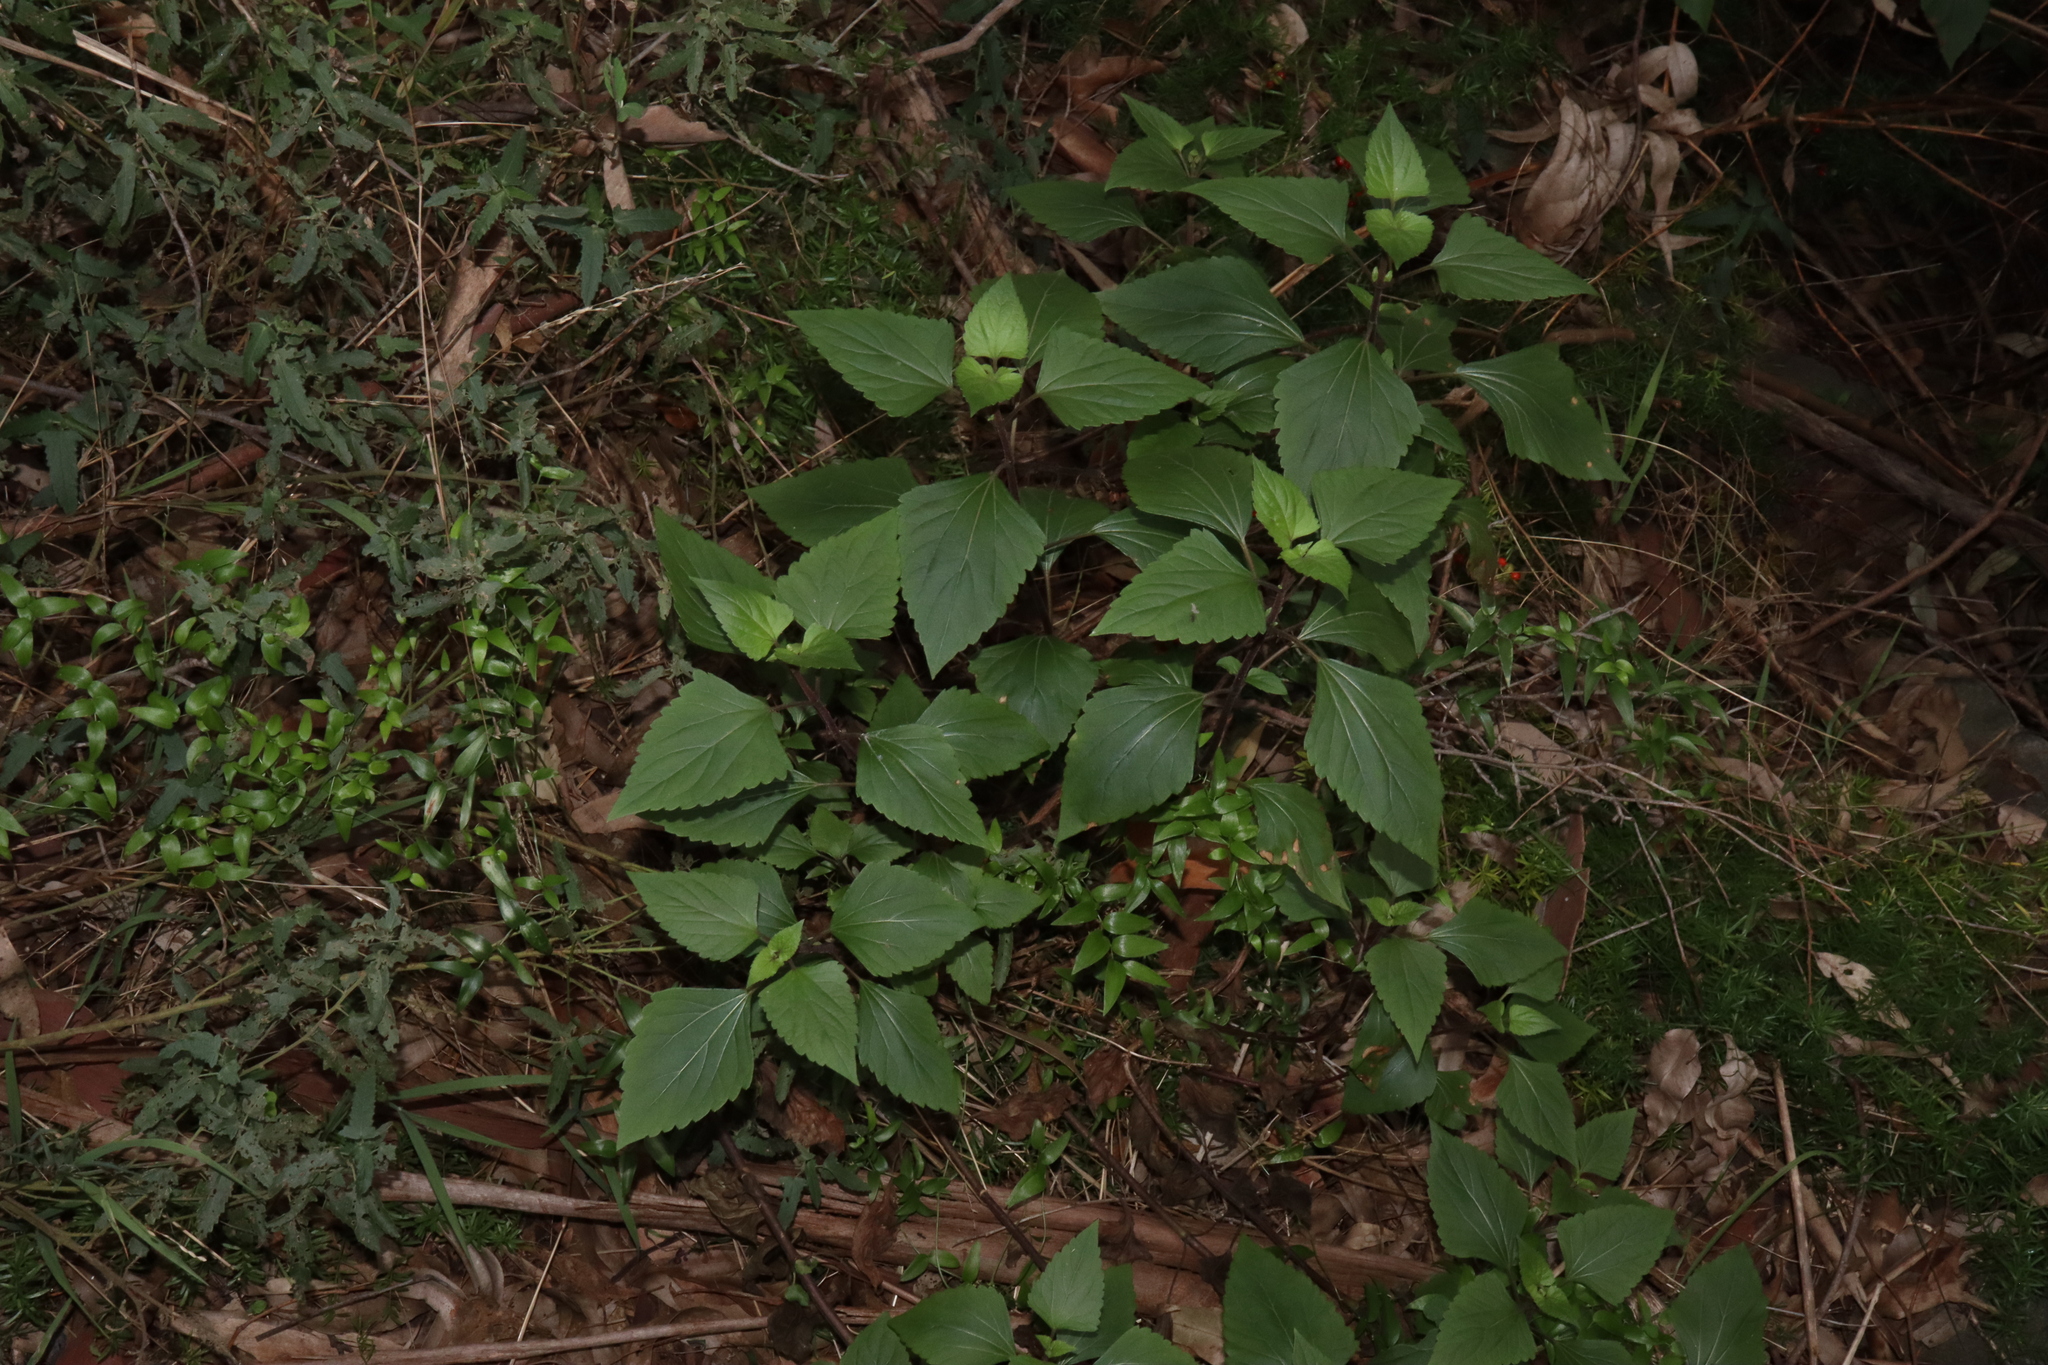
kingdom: Plantae
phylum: Tracheophyta
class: Magnoliopsida
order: Asterales
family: Asteraceae
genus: Ageratina
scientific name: Ageratina adenophora
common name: Sticky snakeroot
